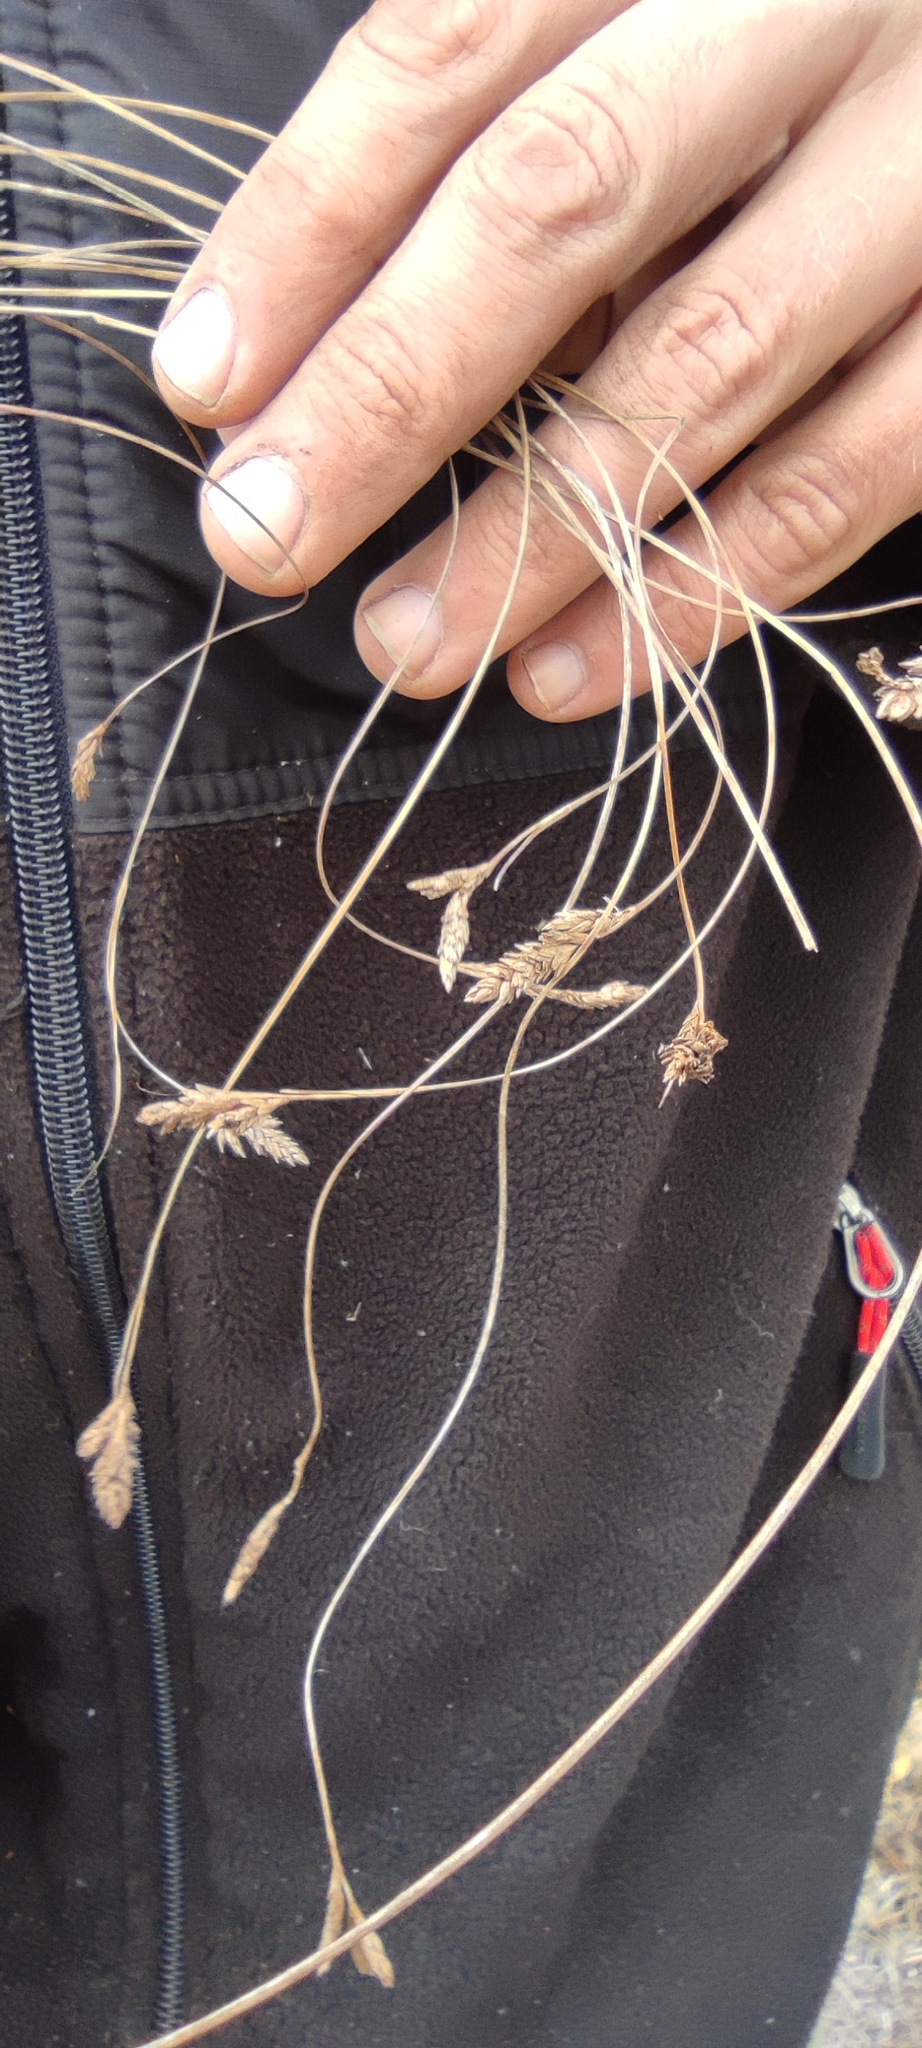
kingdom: Plantae
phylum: Tracheophyta
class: Liliopsida
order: Poales
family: Cyperaceae
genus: Carex
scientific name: Carex boliviensis
